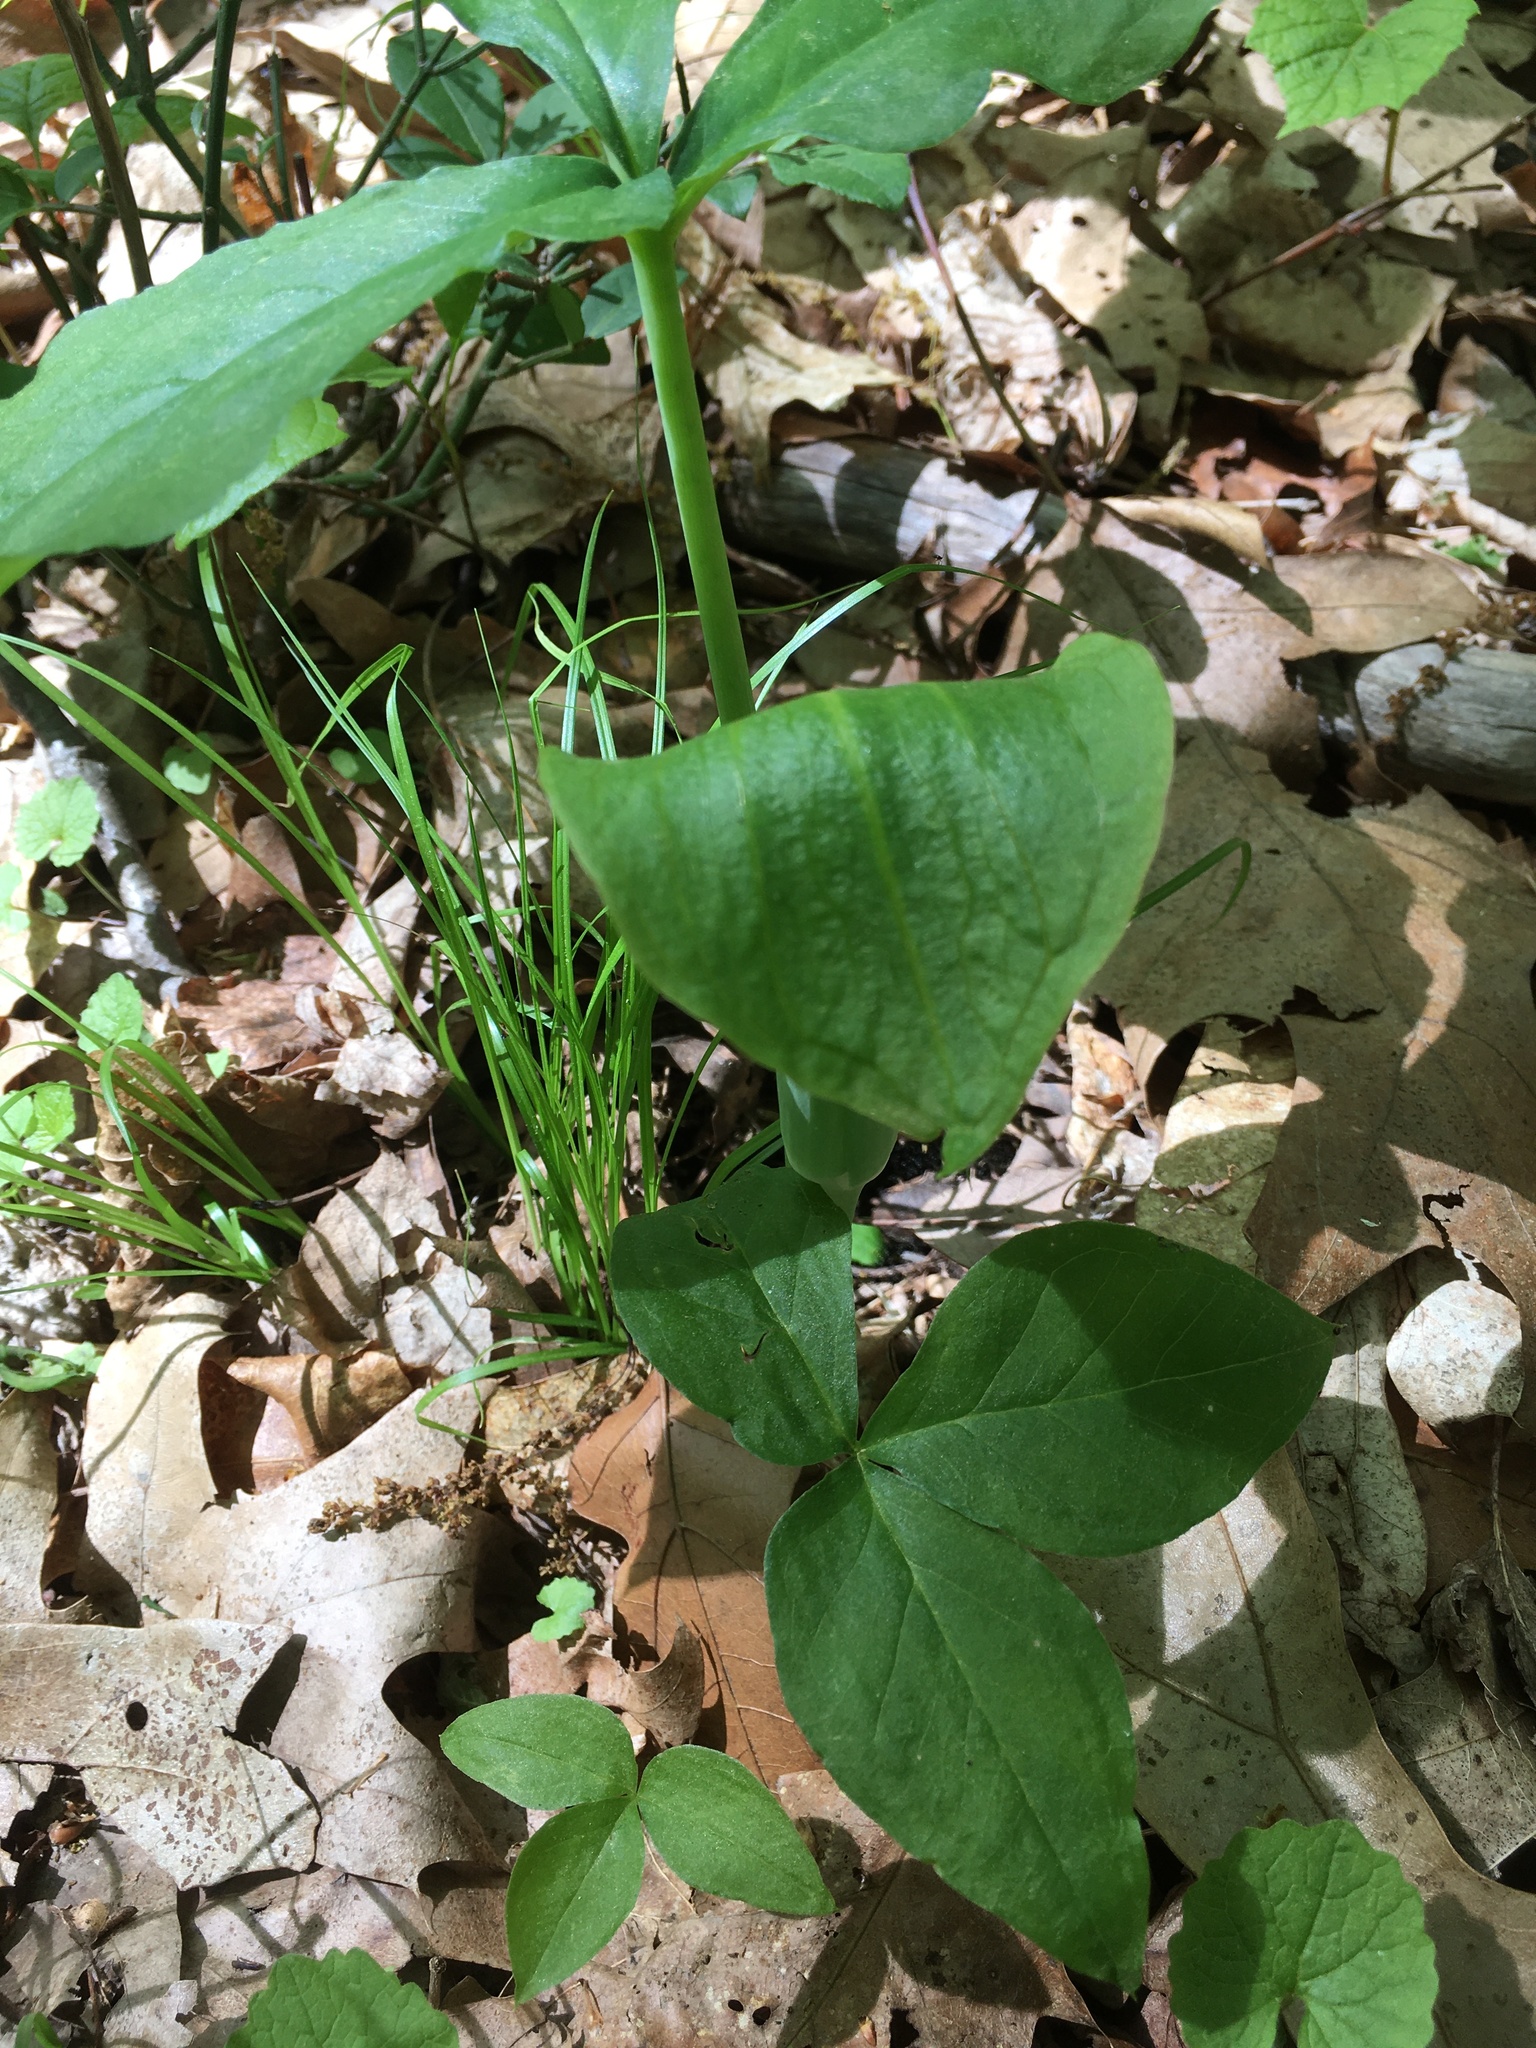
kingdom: Plantae
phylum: Tracheophyta
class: Liliopsida
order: Alismatales
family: Araceae
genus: Arisaema
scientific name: Arisaema triphyllum
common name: Jack-in-the-pulpit
